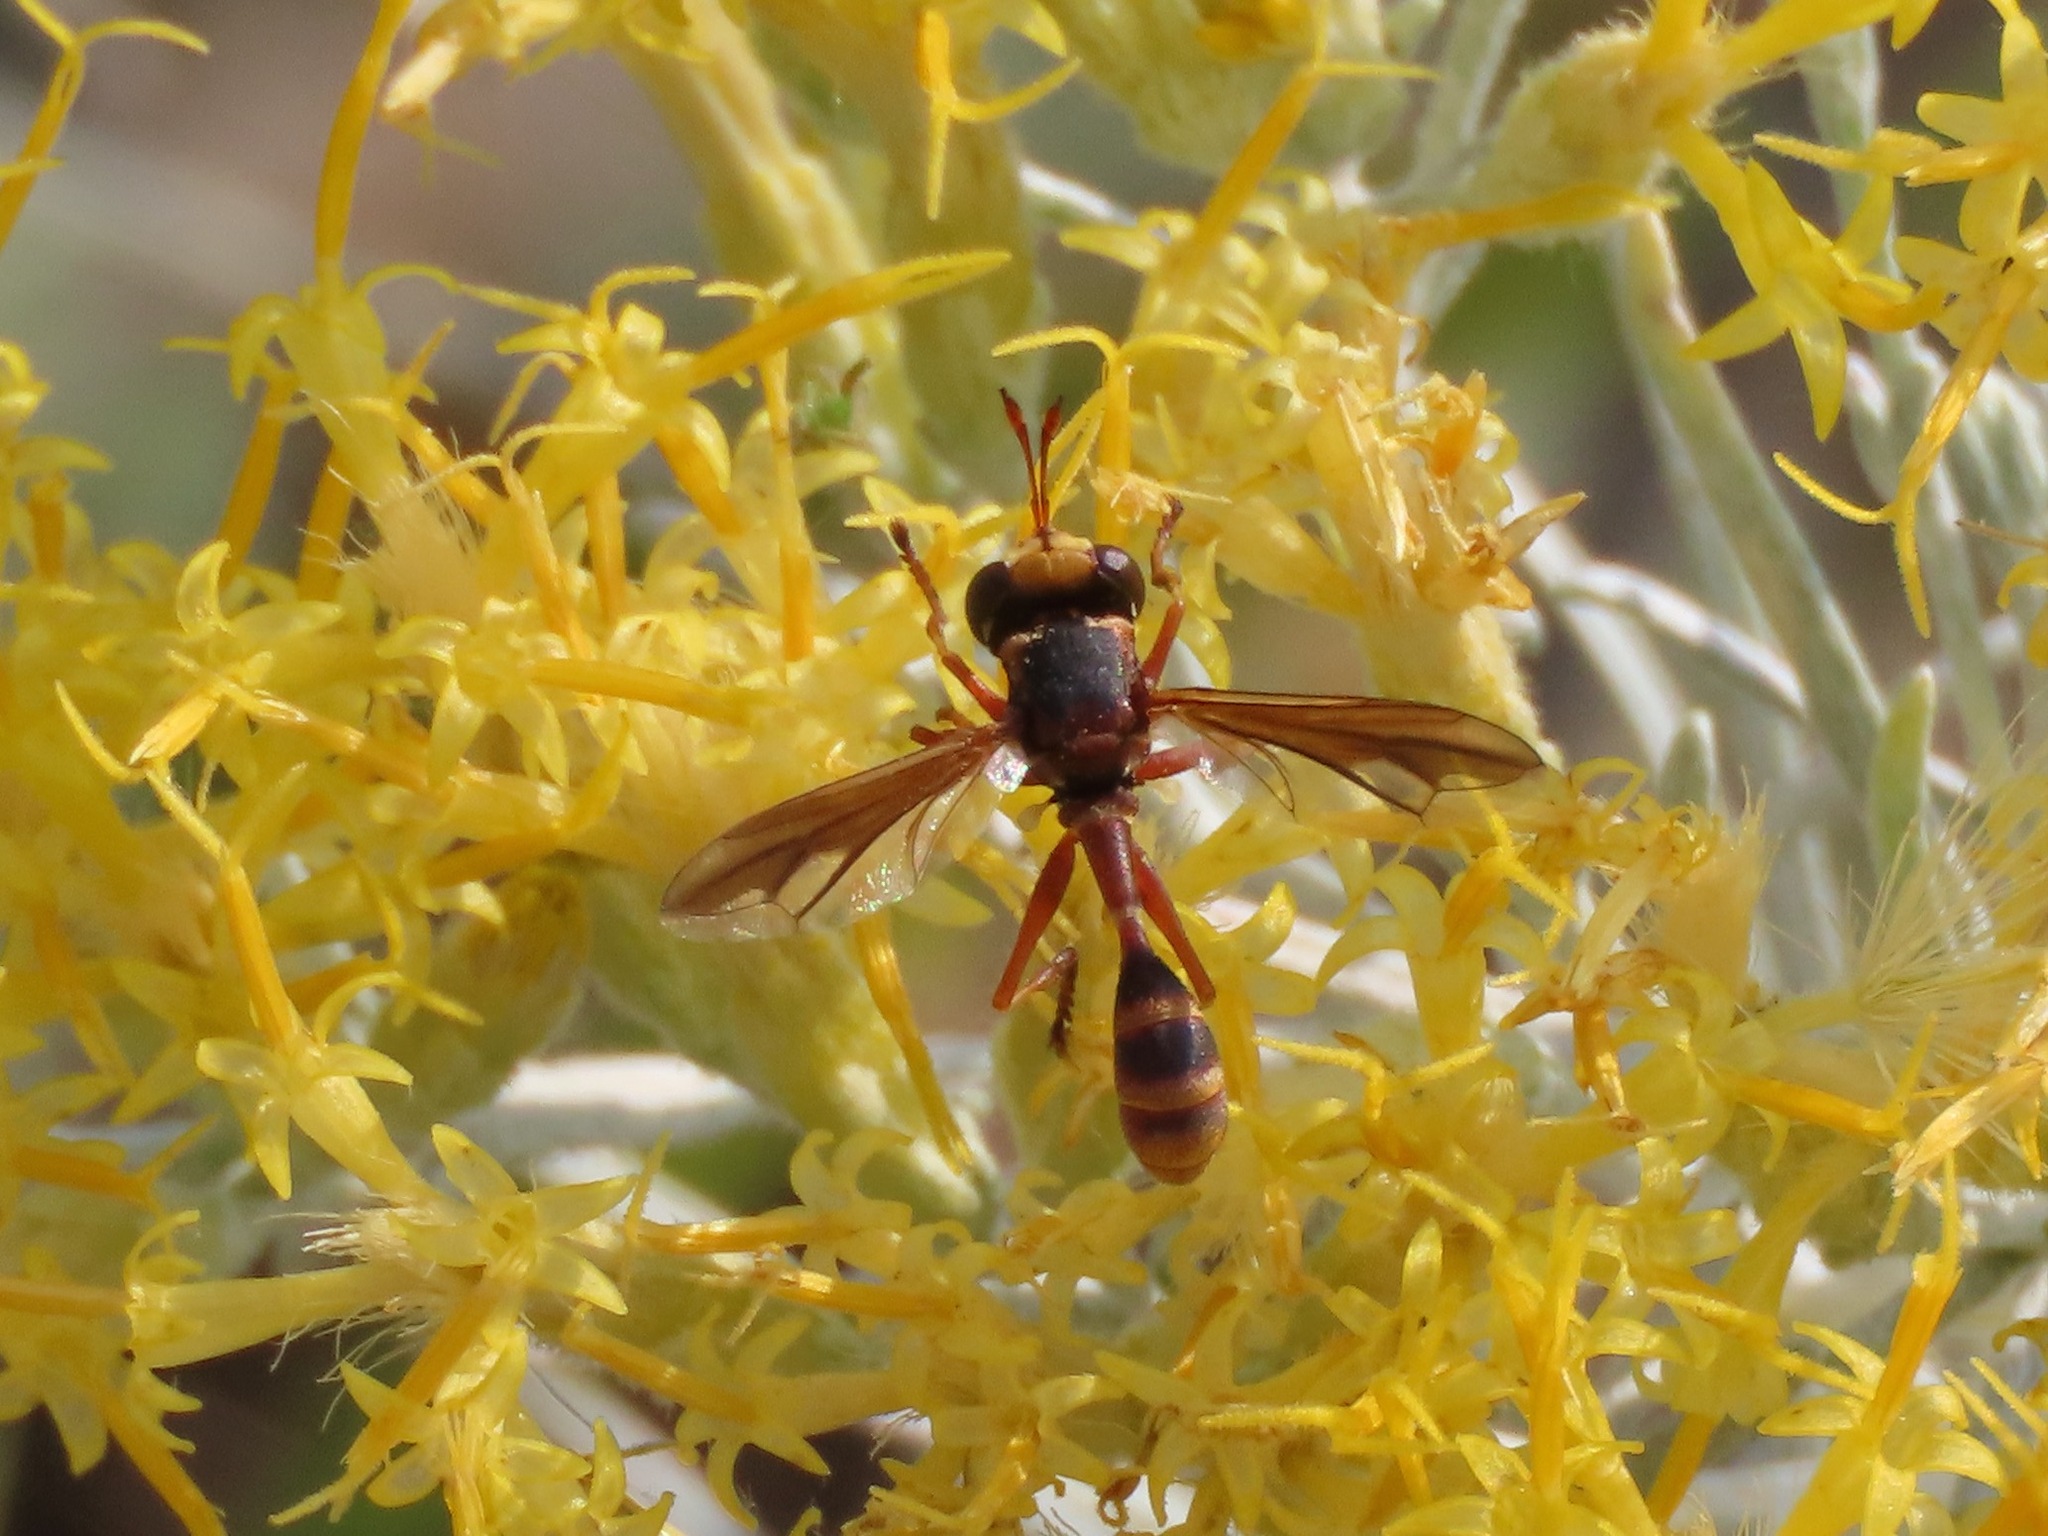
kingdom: Animalia
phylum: Arthropoda
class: Insecta
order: Diptera
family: Conopidae
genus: Physocephala
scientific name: Physocephala
